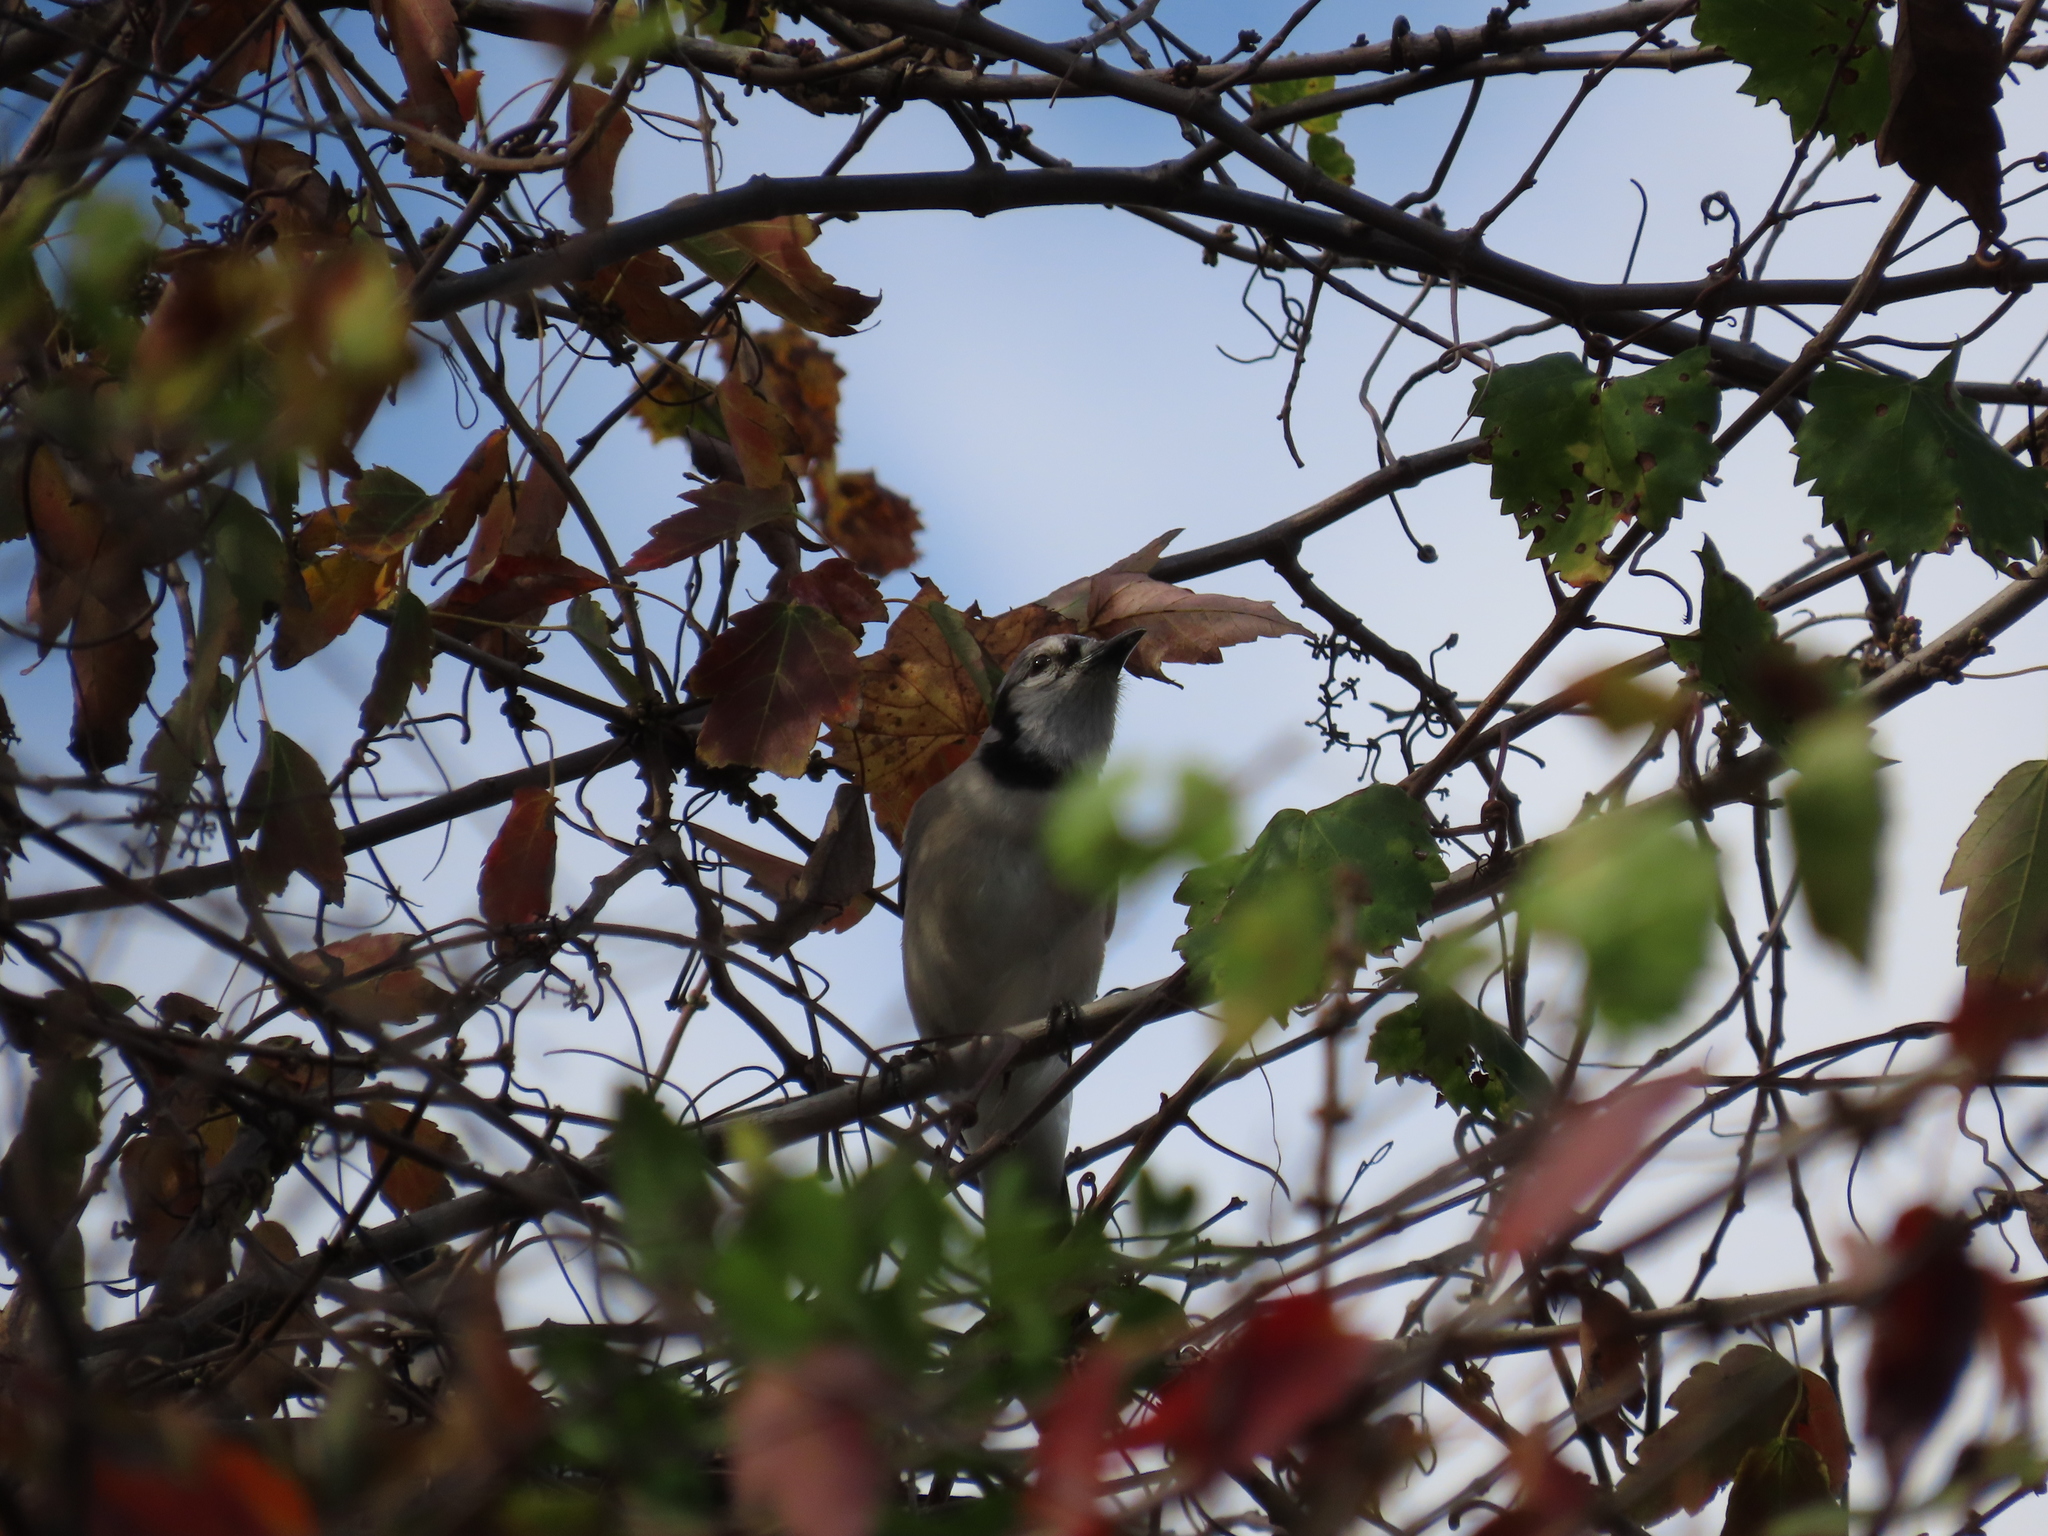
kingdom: Animalia
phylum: Chordata
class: Aves
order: Passeriformes
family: Corvidae
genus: Cyanocitta
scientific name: Cyanocitta cristata
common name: Blue jay
